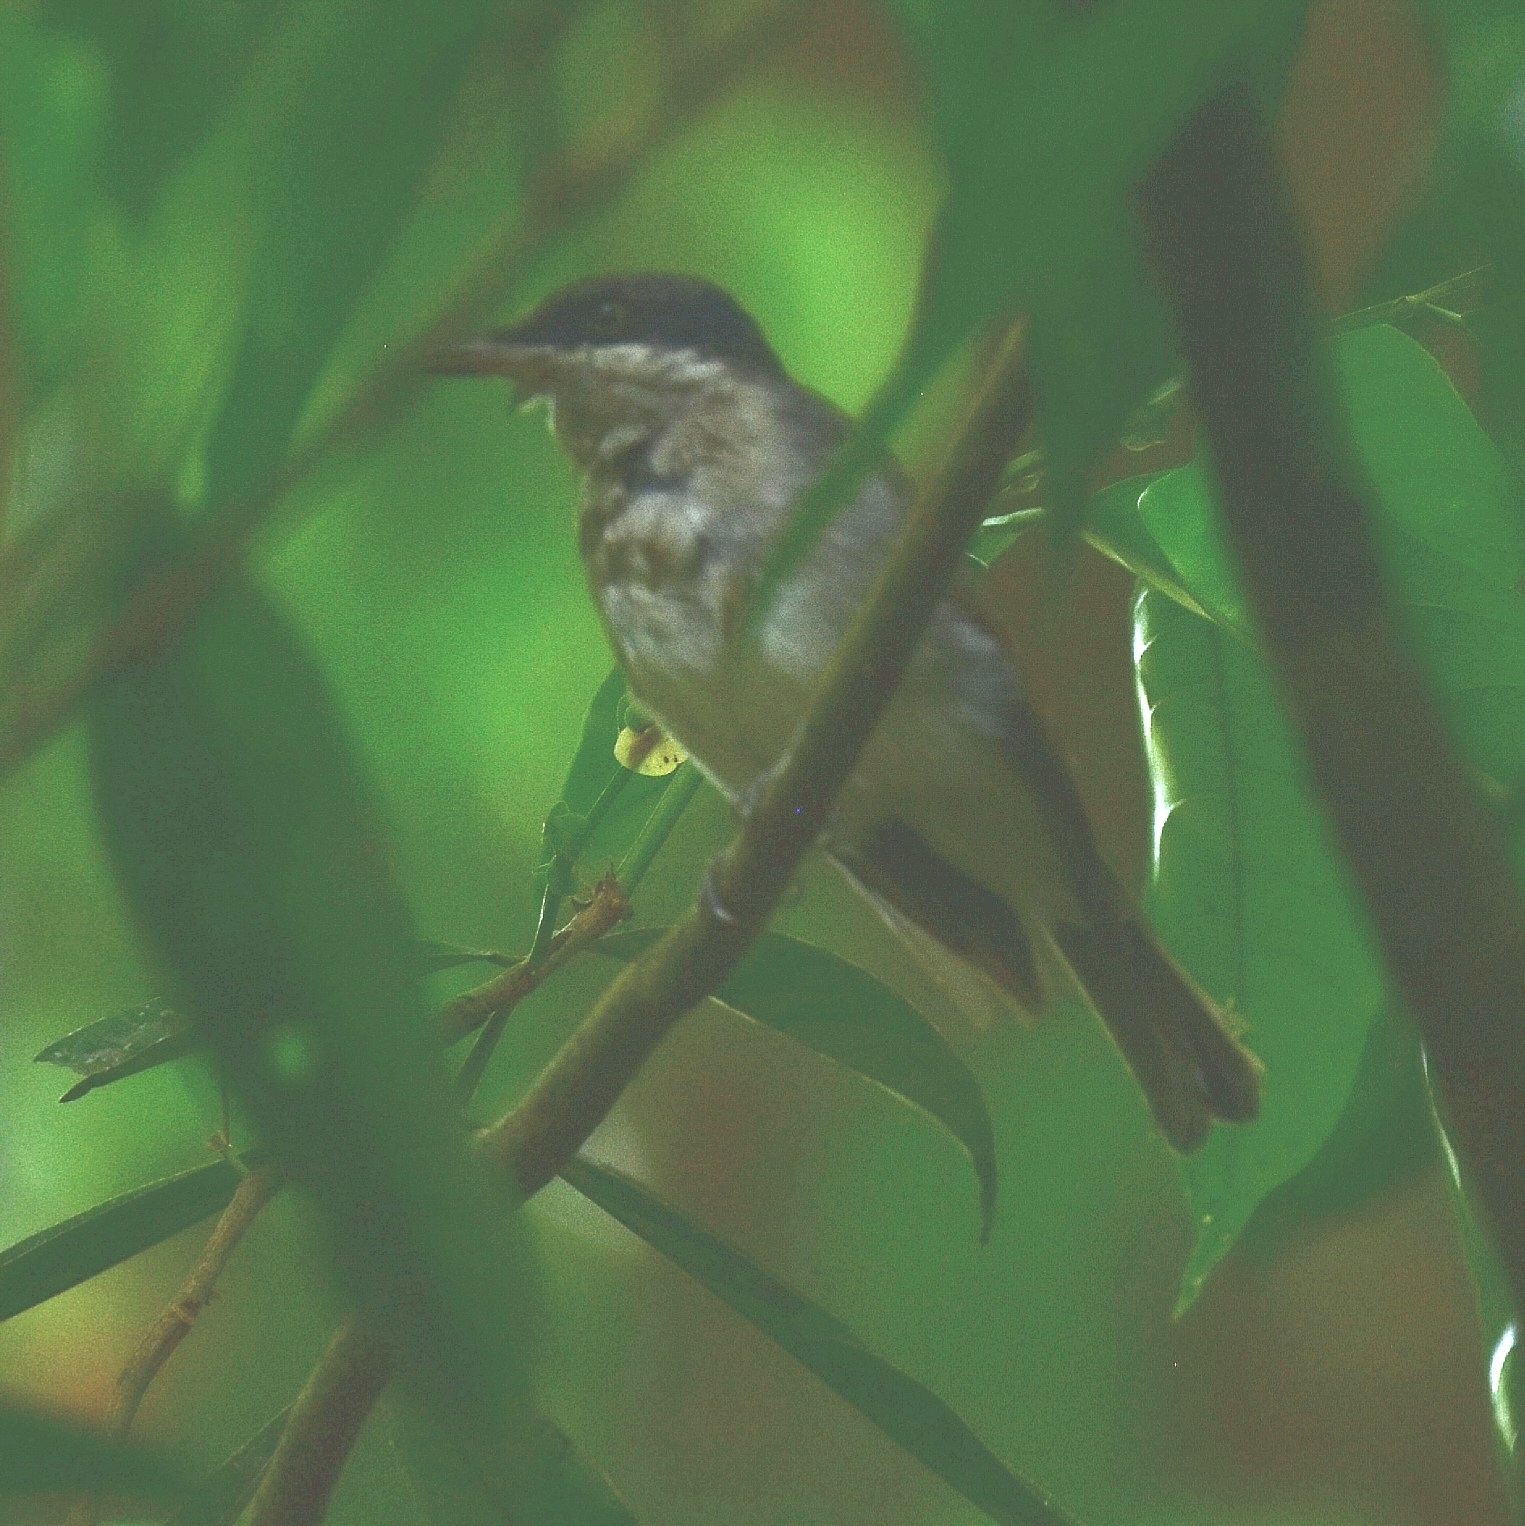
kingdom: Animalia
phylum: Chordata
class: Aves
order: Passeriformes
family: Tephrodornithidae
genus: Tephrodornis
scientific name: Tephrodornis sylvicola
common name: Malabar woodshrike
